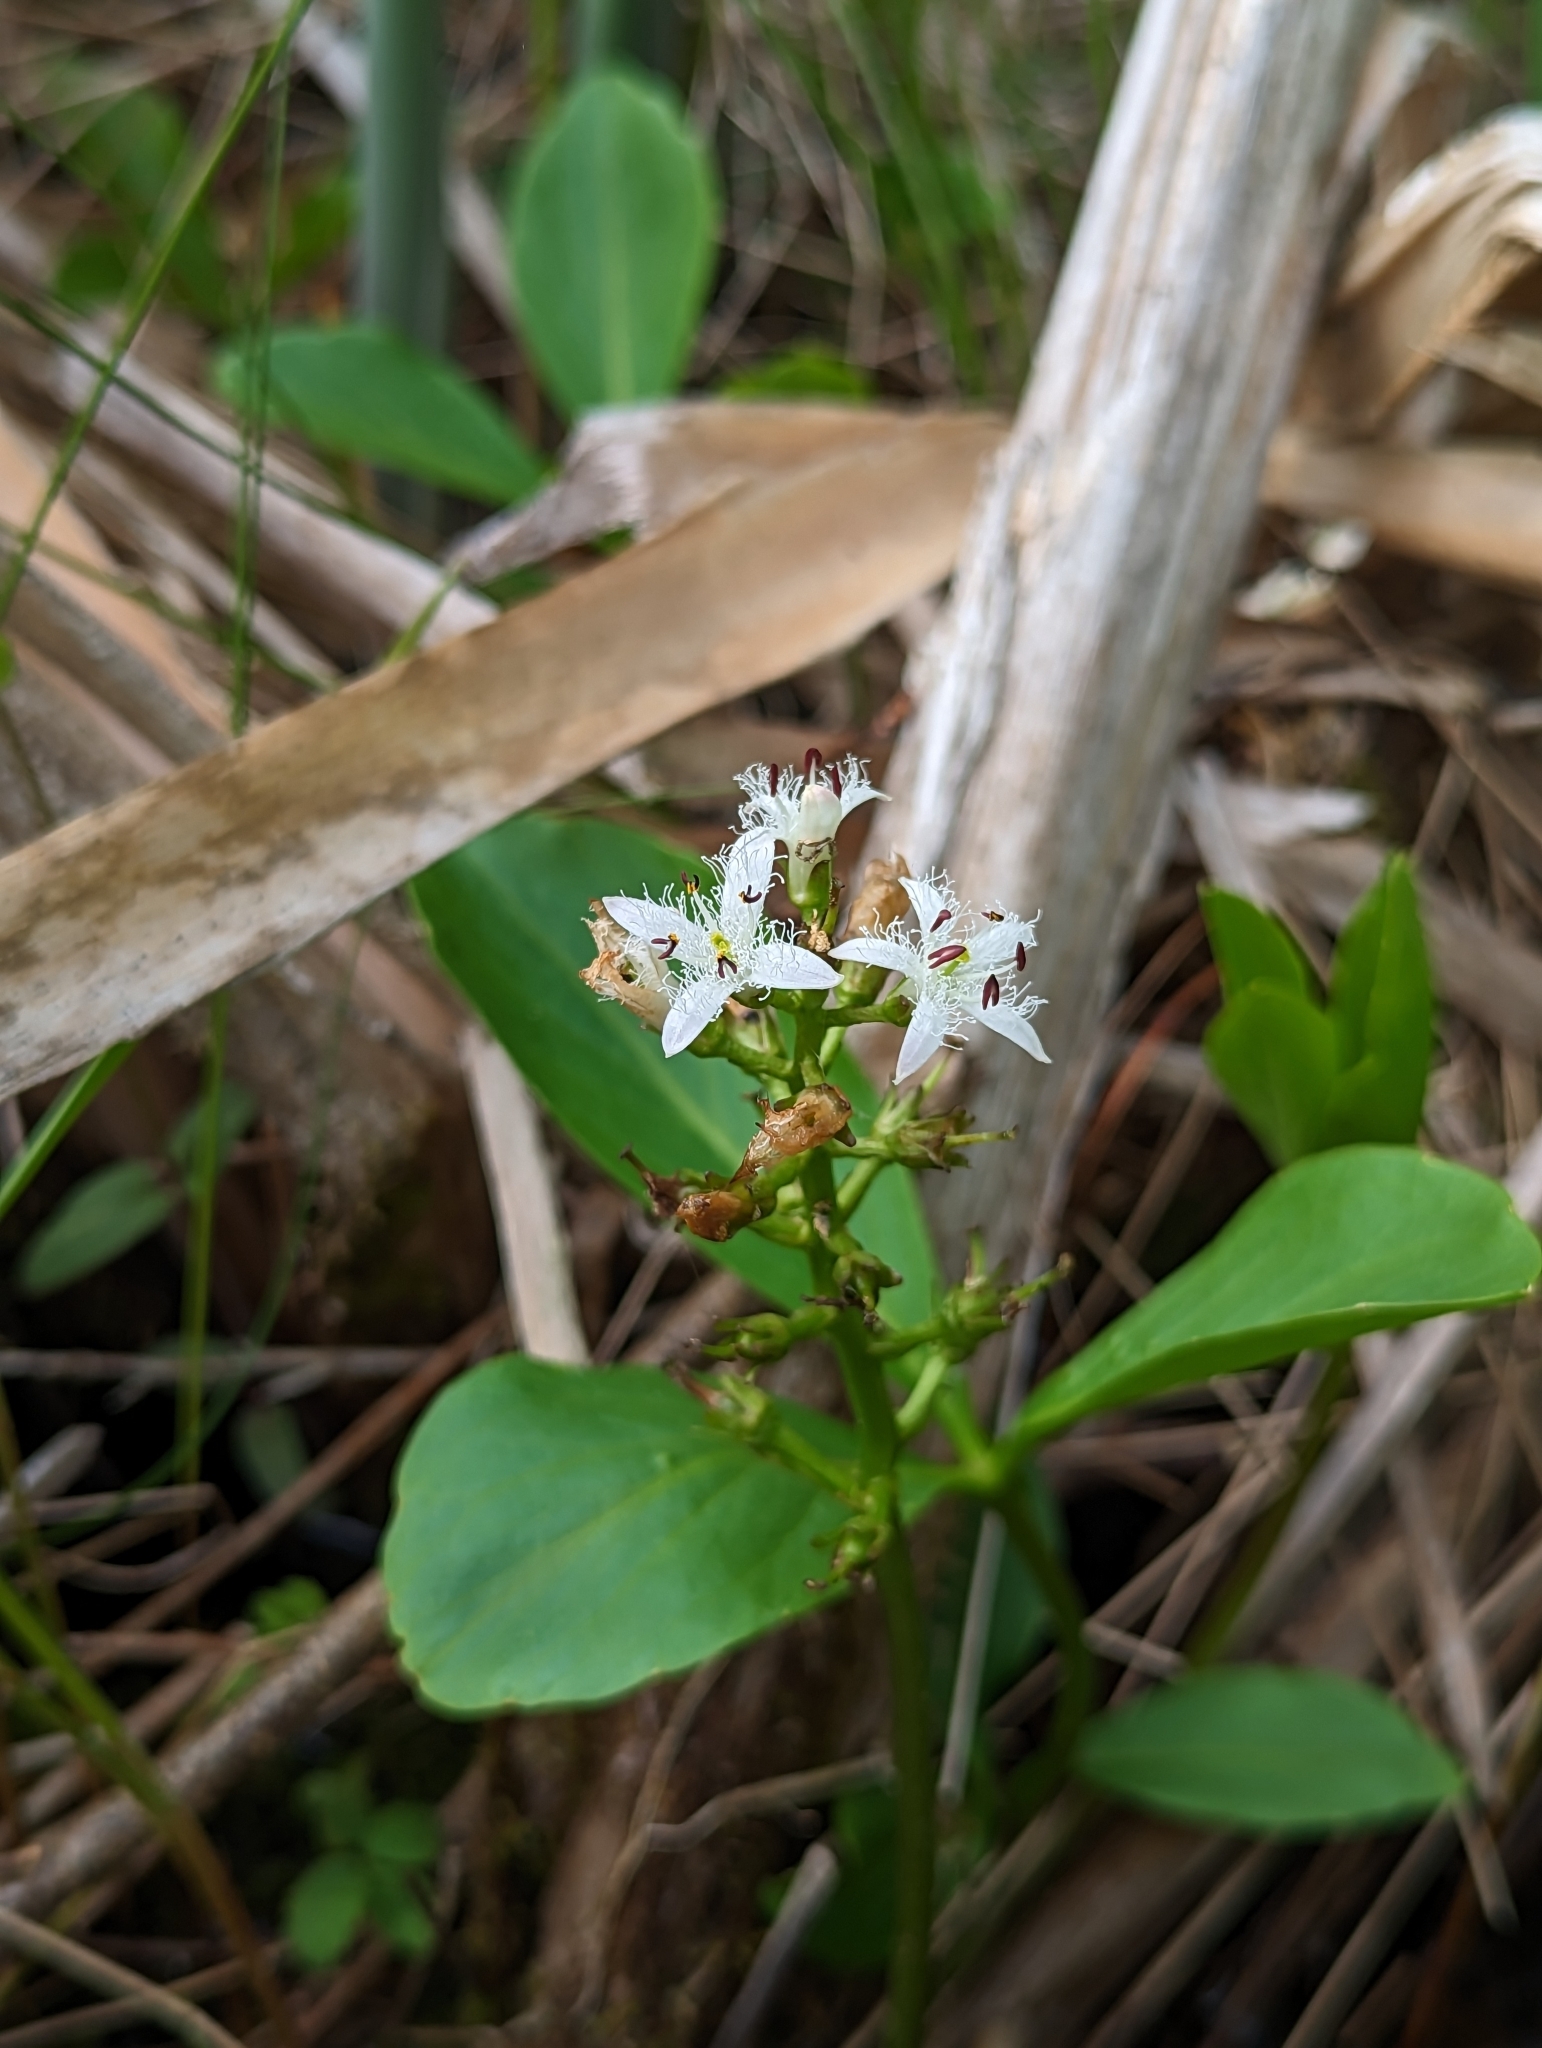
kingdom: Plantae
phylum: Tracheophyta
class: Magnoliopsida
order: Asterales
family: Menyanthaceae
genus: Menyanthes
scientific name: Menyanthes trifoliata
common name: Bogbean
